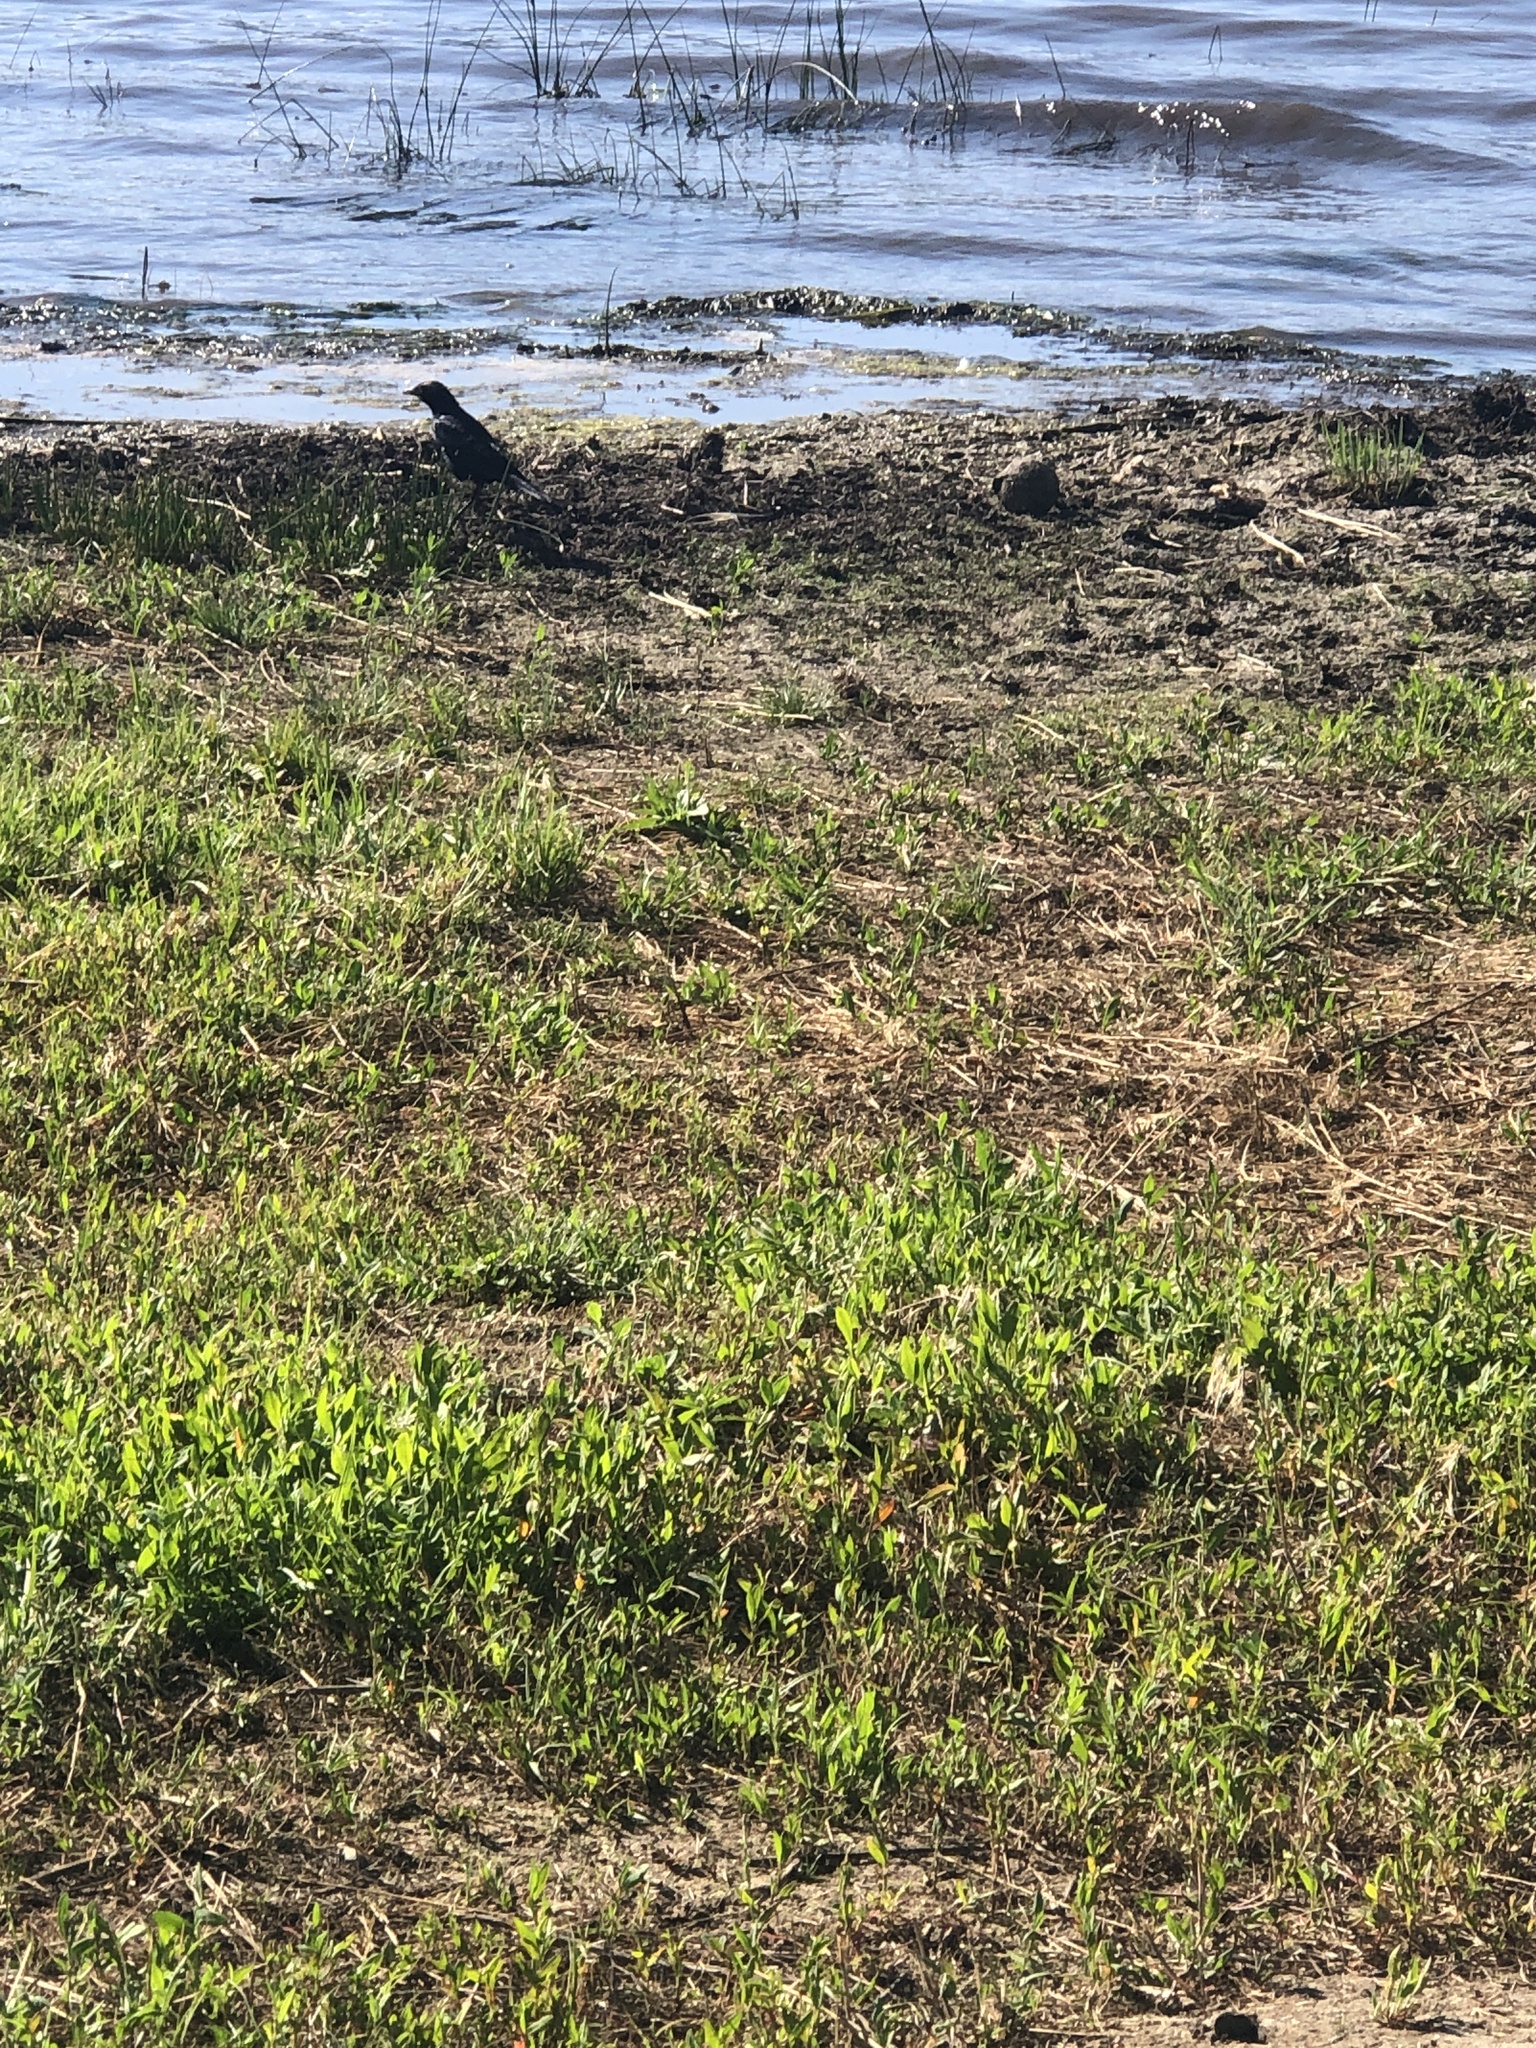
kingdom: Animalia
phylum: Chordata
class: Aves
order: Passeriformes
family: Icteridae
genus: Euphagus
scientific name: Euphagus cyanocephalus
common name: Brewer's blackbird
